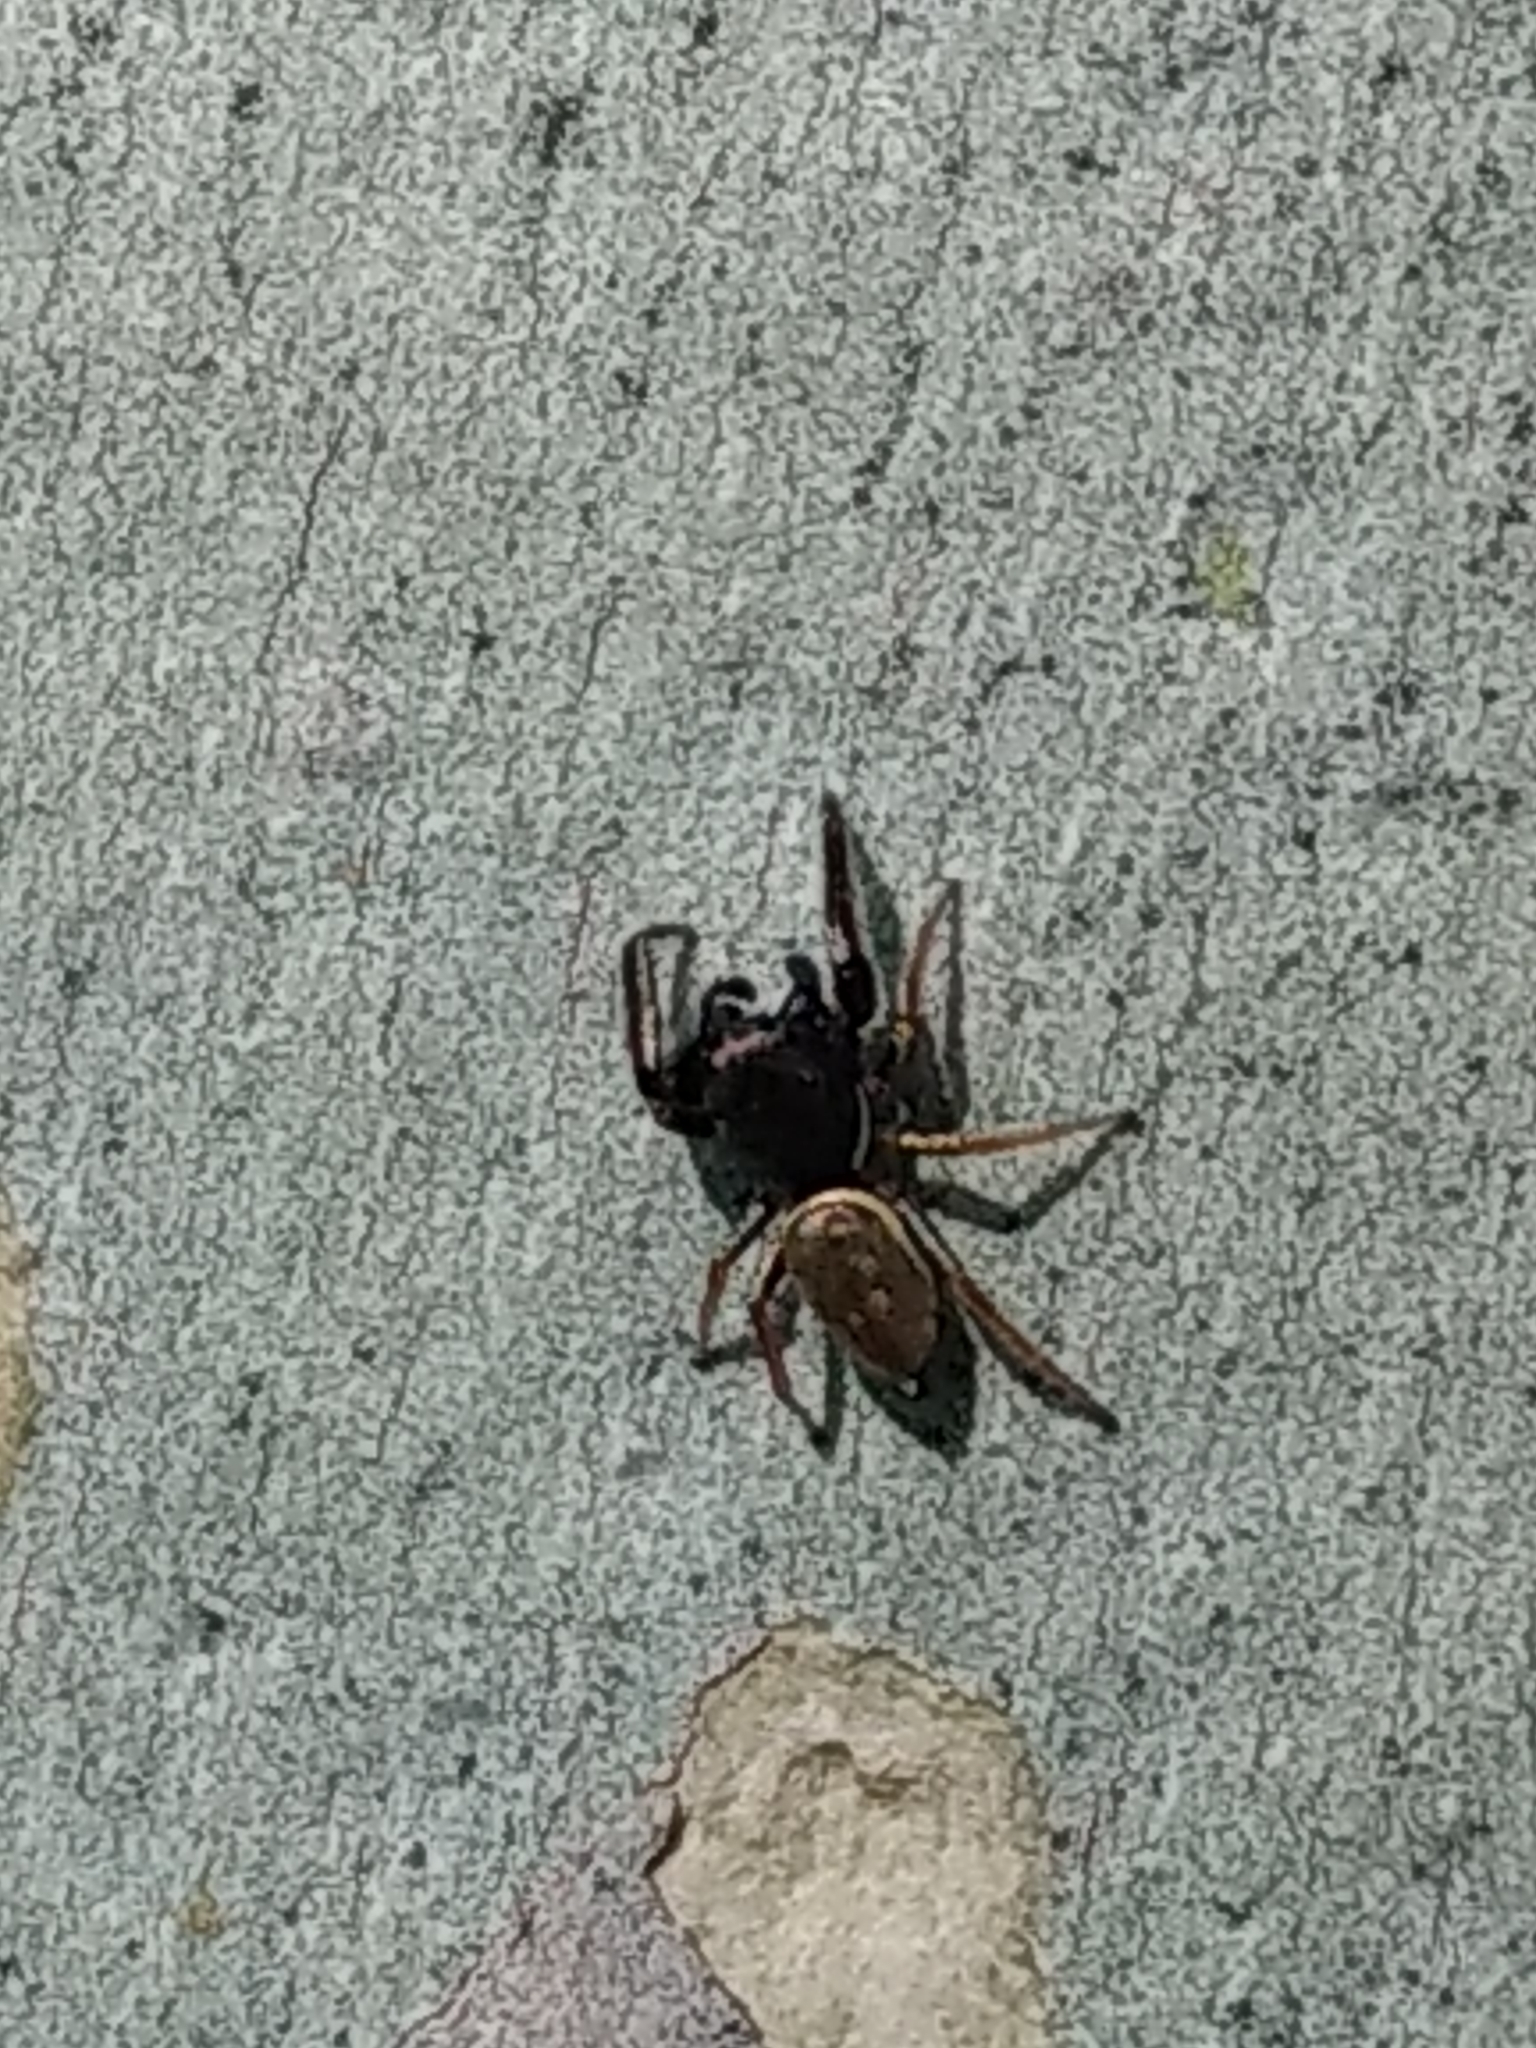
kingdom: Animalia
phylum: Arthropoda
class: Arachnida
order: Araneae
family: Salticidae
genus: Sassacus
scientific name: Sassacus vitis
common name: Jumping spiders
